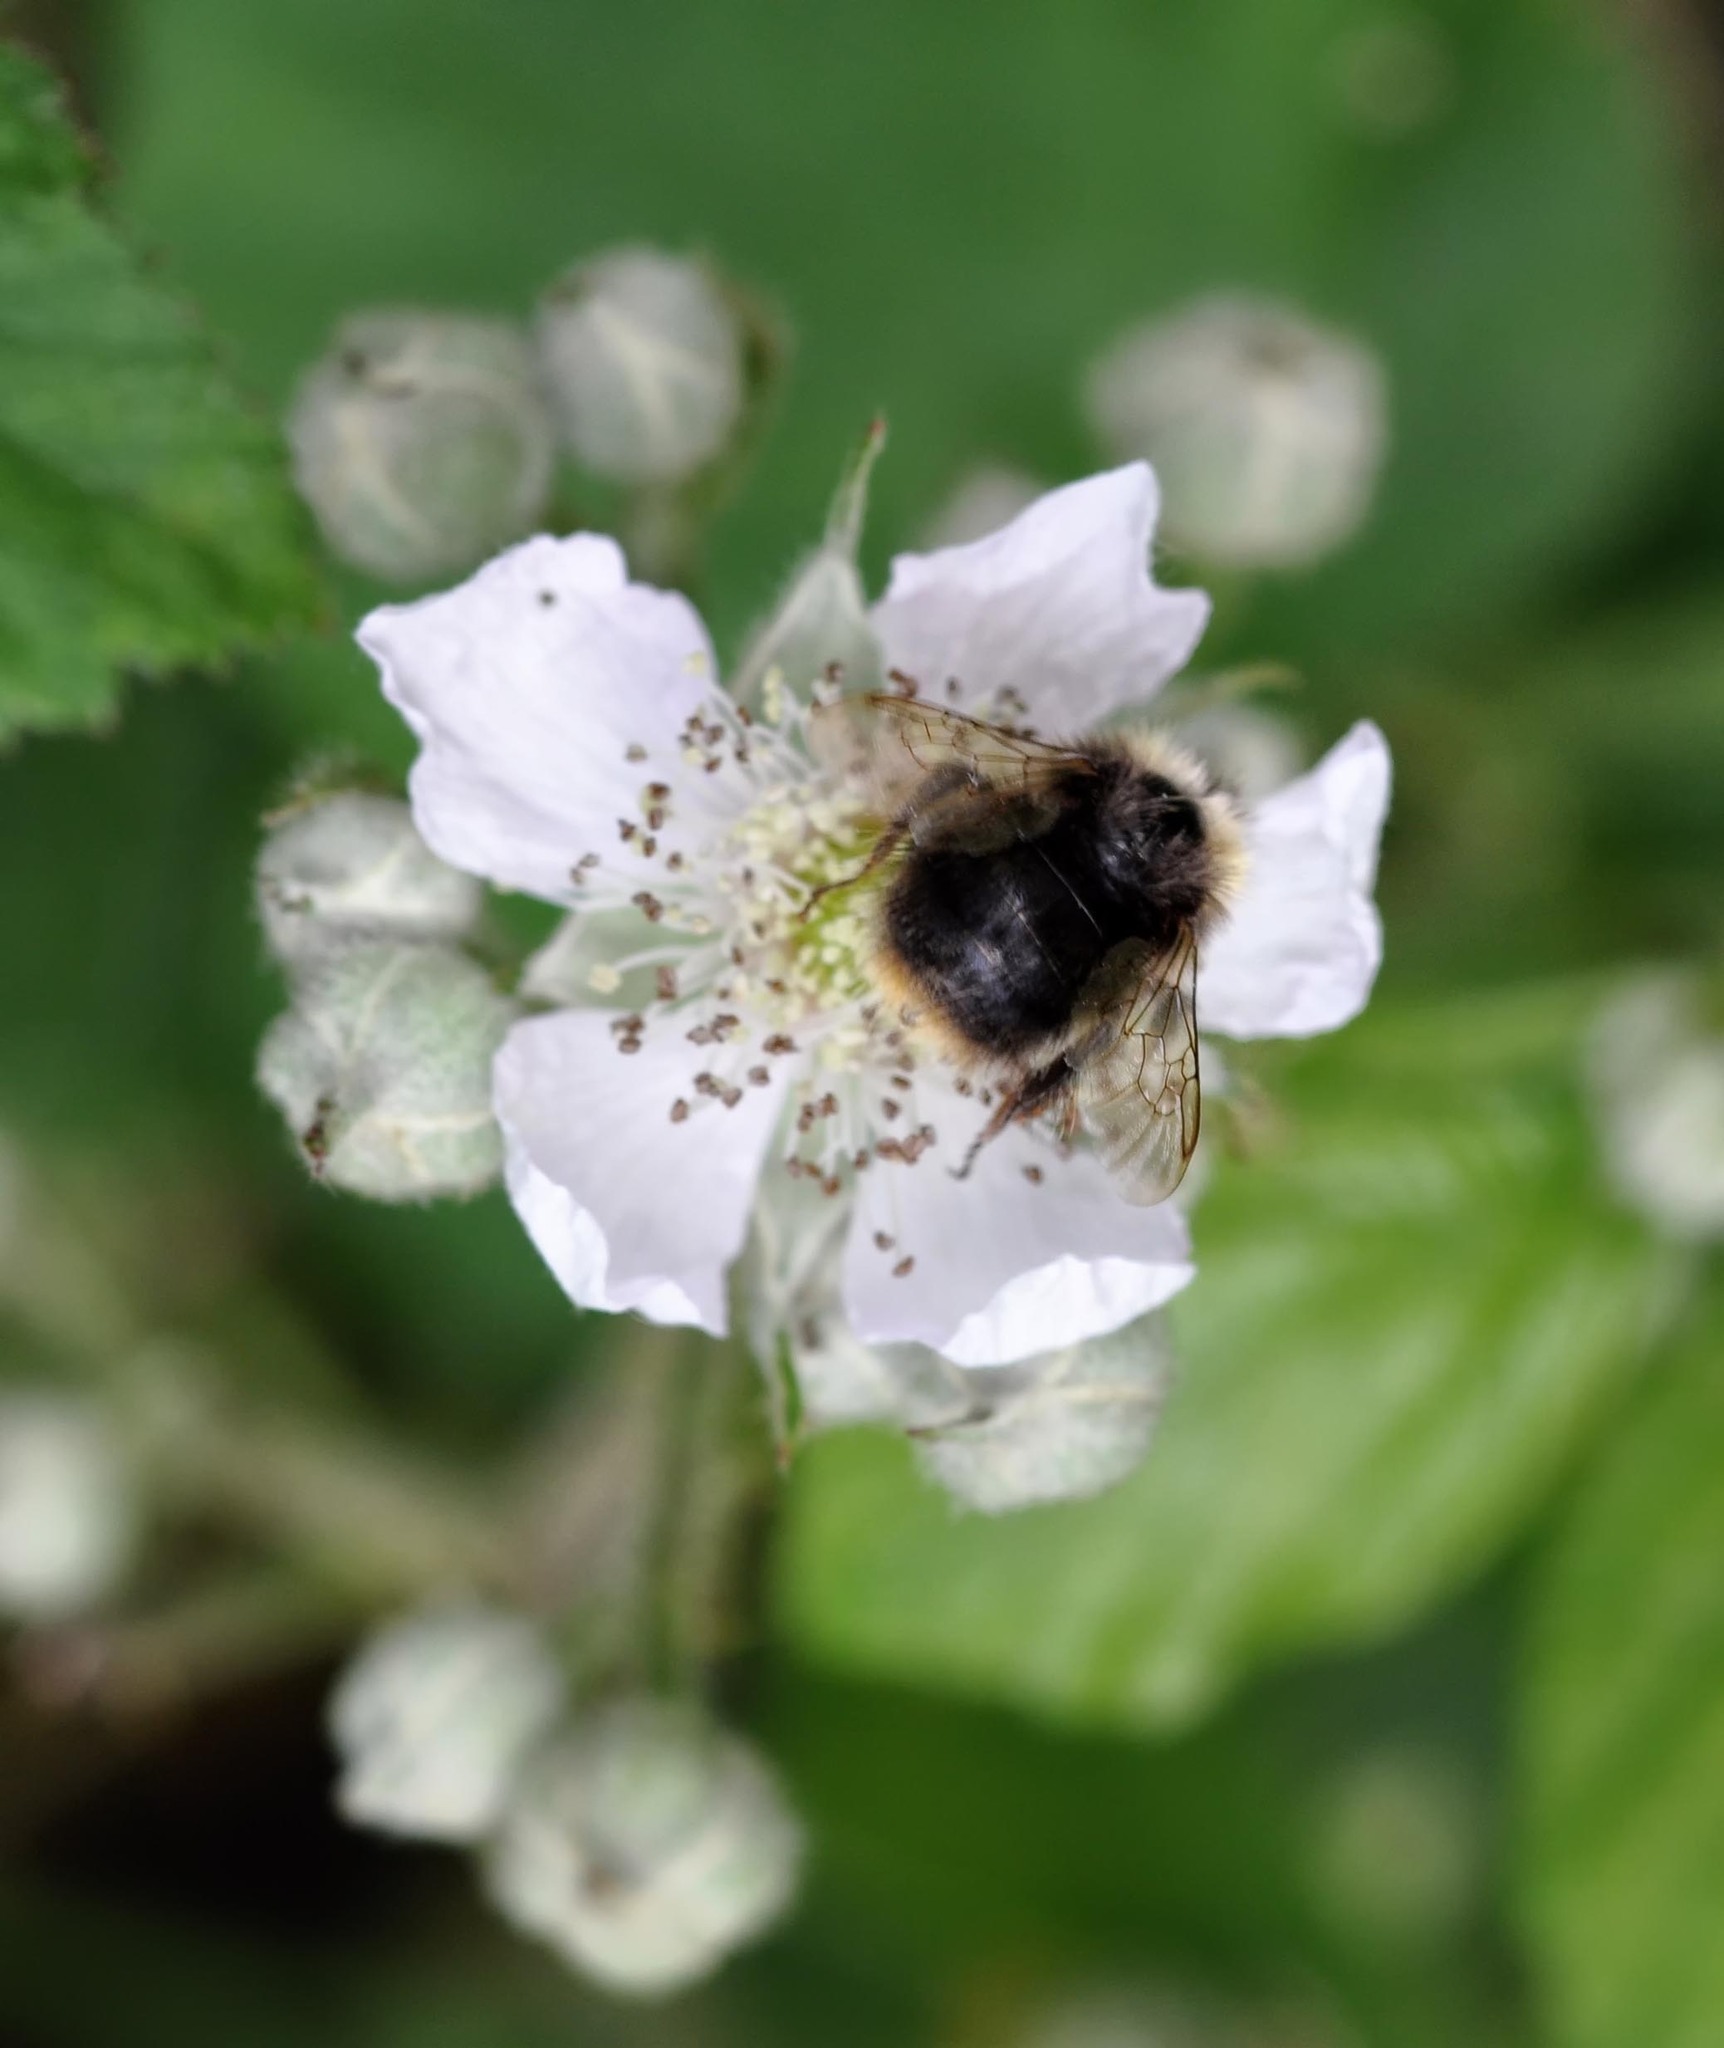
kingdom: Animalia
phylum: Arthropoda
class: Insecta
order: Hymenoptera
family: Apidae
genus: Bombus
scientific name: Bombus pratorum
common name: Early humble-bee
